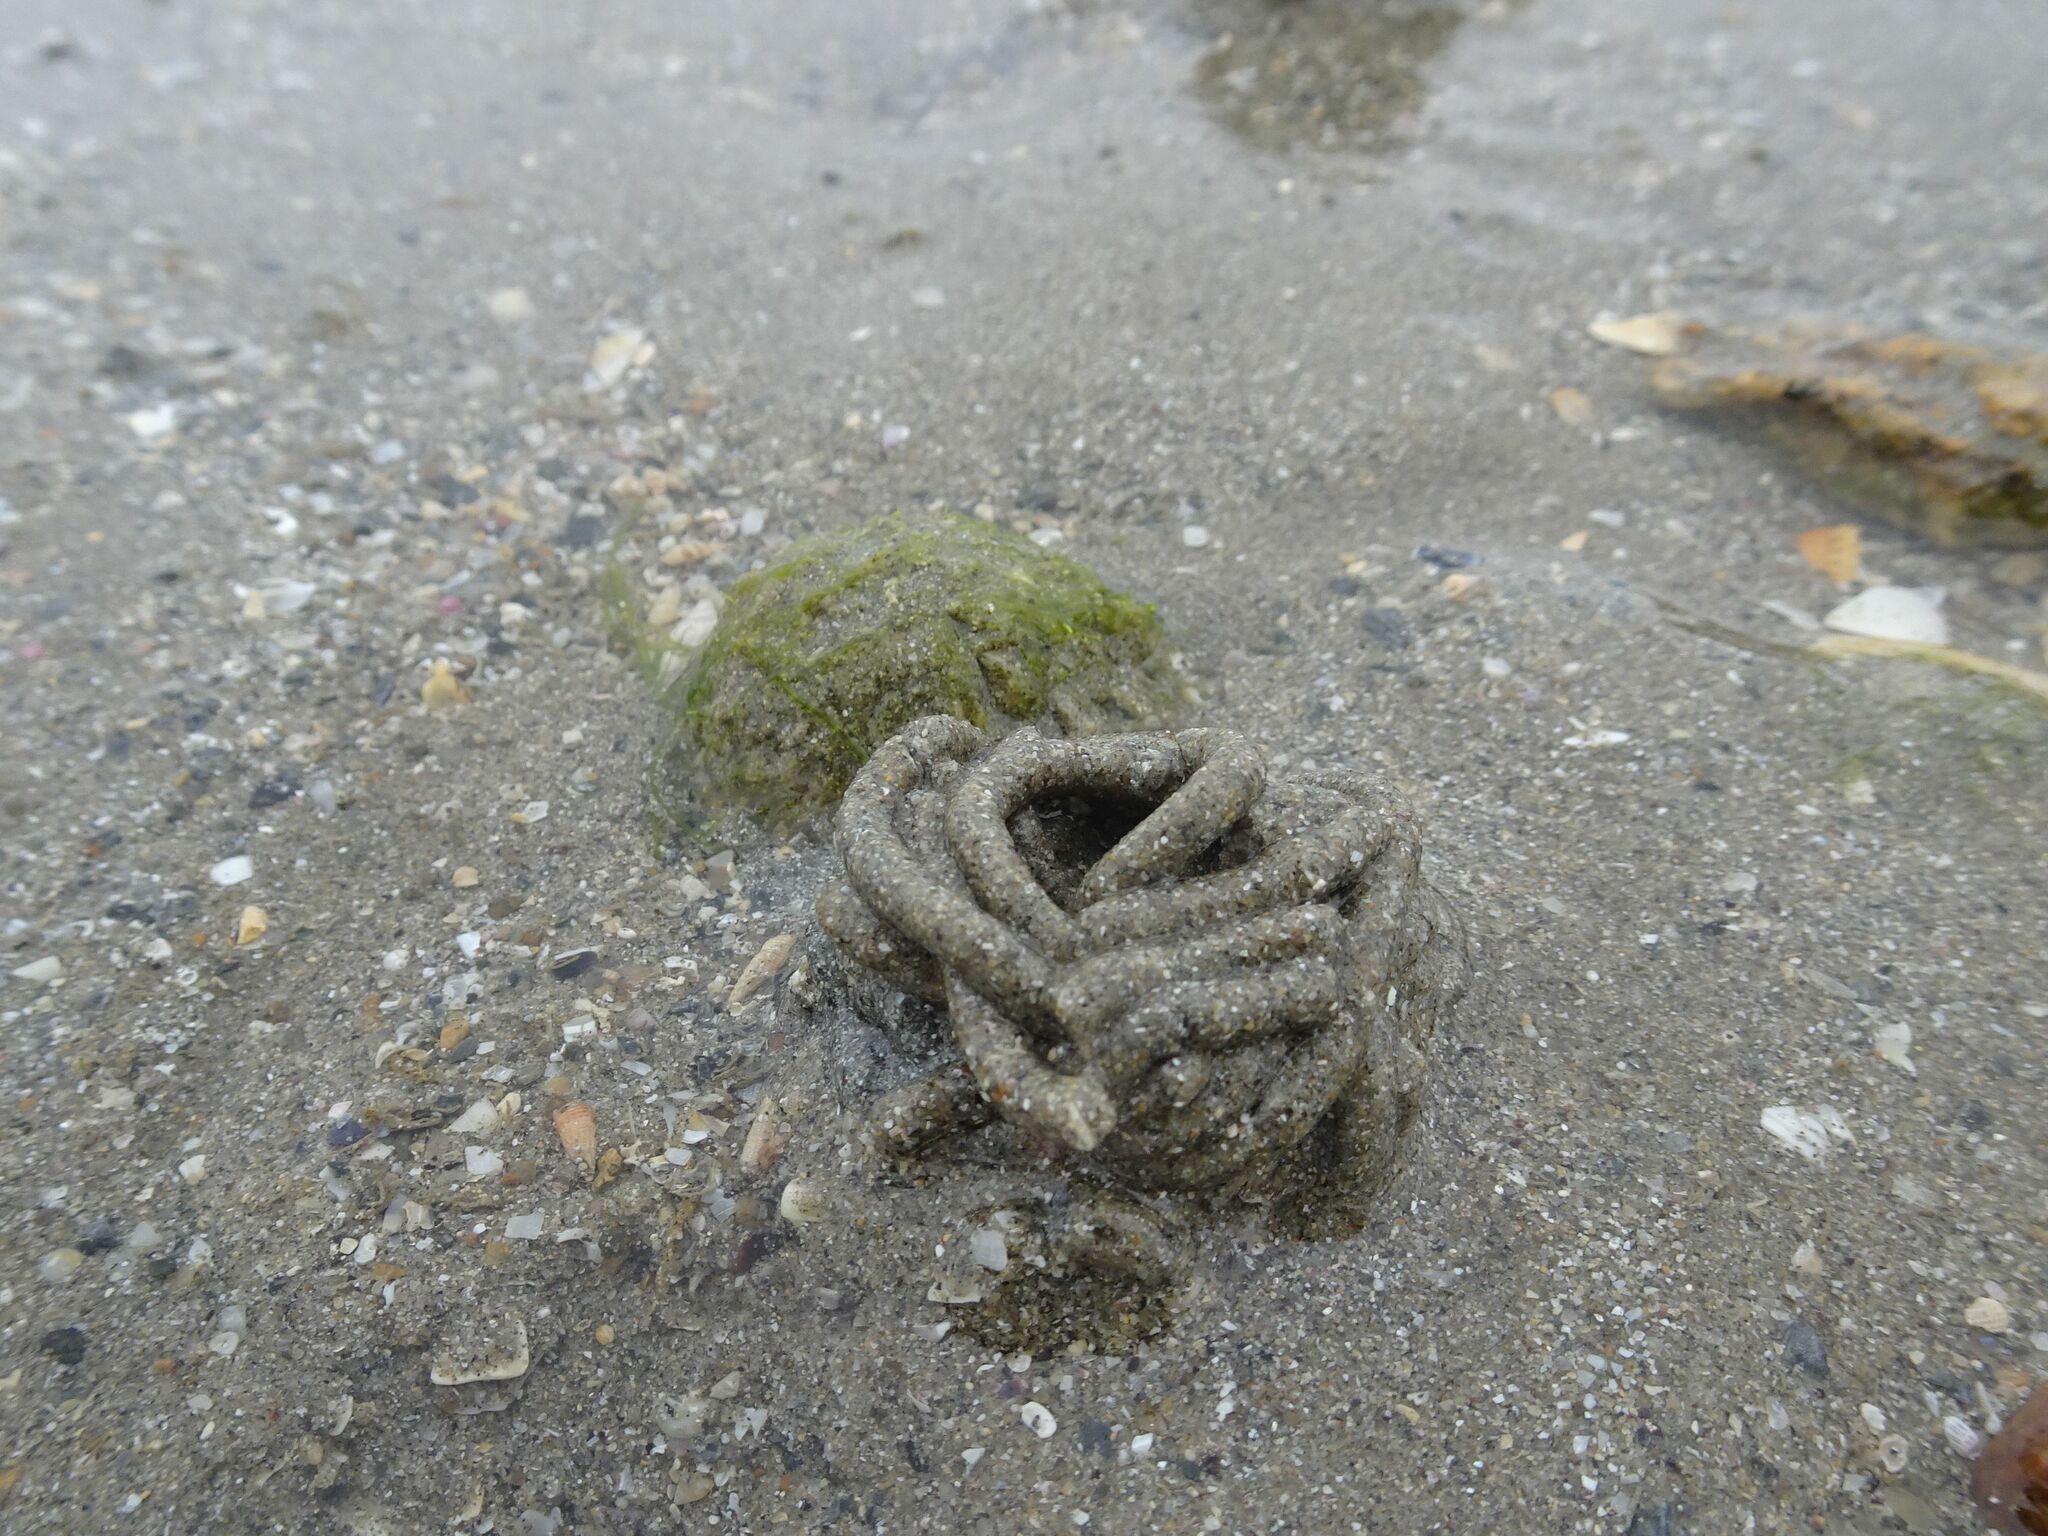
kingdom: Animalia
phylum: Annelida
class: Polychaeta
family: Arenicolidae
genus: Arenicola
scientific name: Arenicola marina
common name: Blow lugworm
